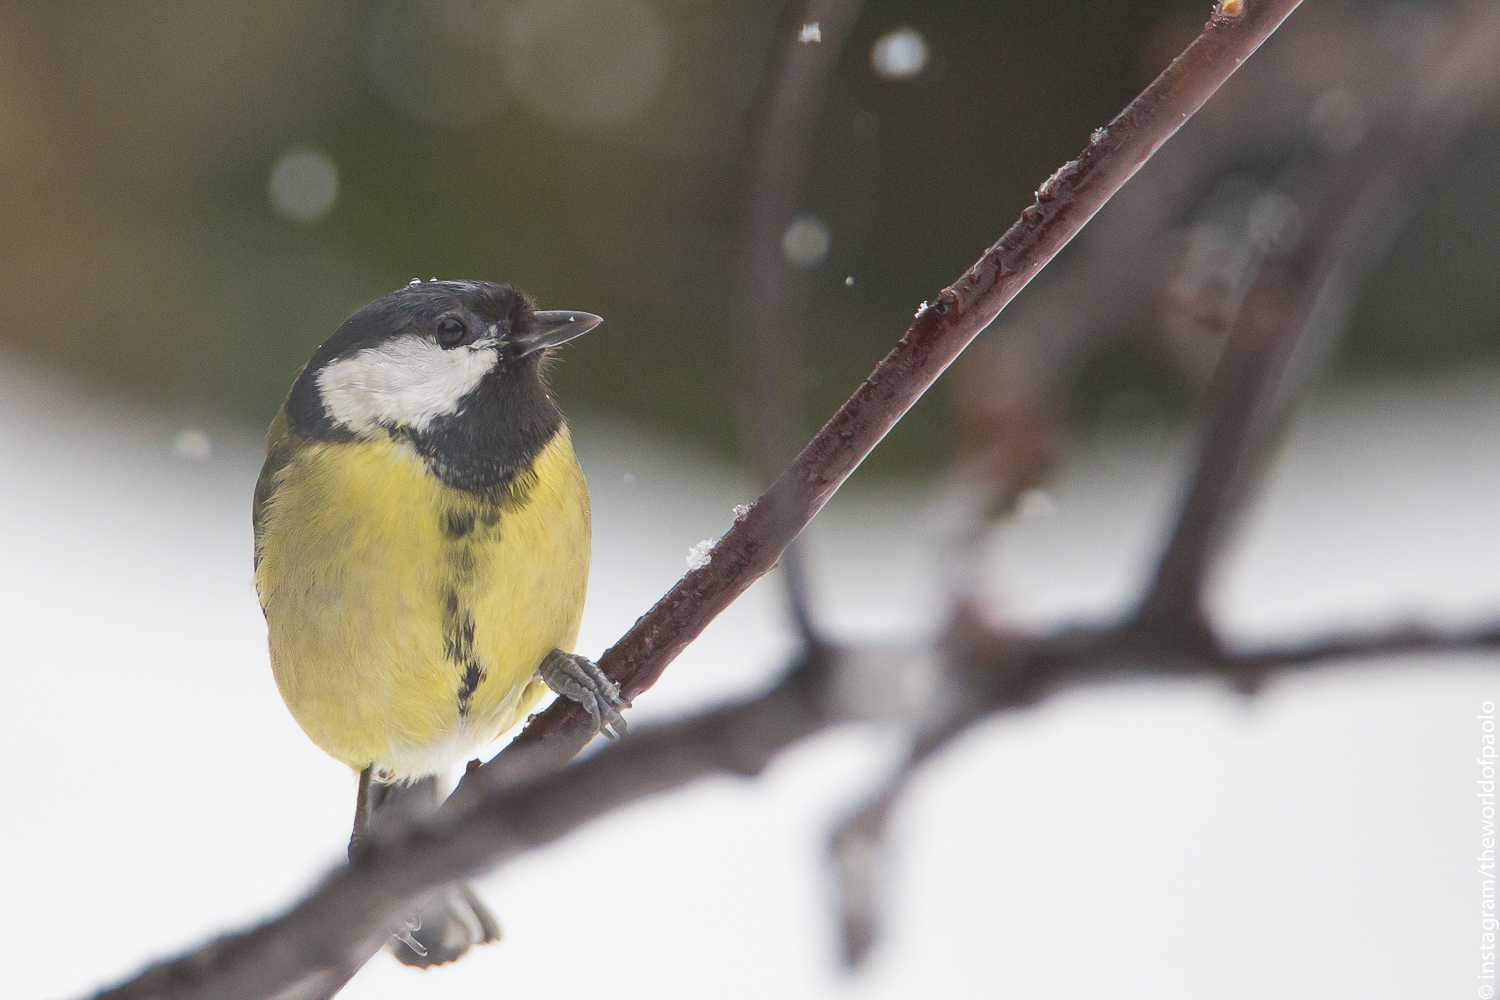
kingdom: Animalia
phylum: Chordata
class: Aves
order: Passeriformes
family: Paridae
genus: Parus
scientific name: Parus major
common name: Great tit
